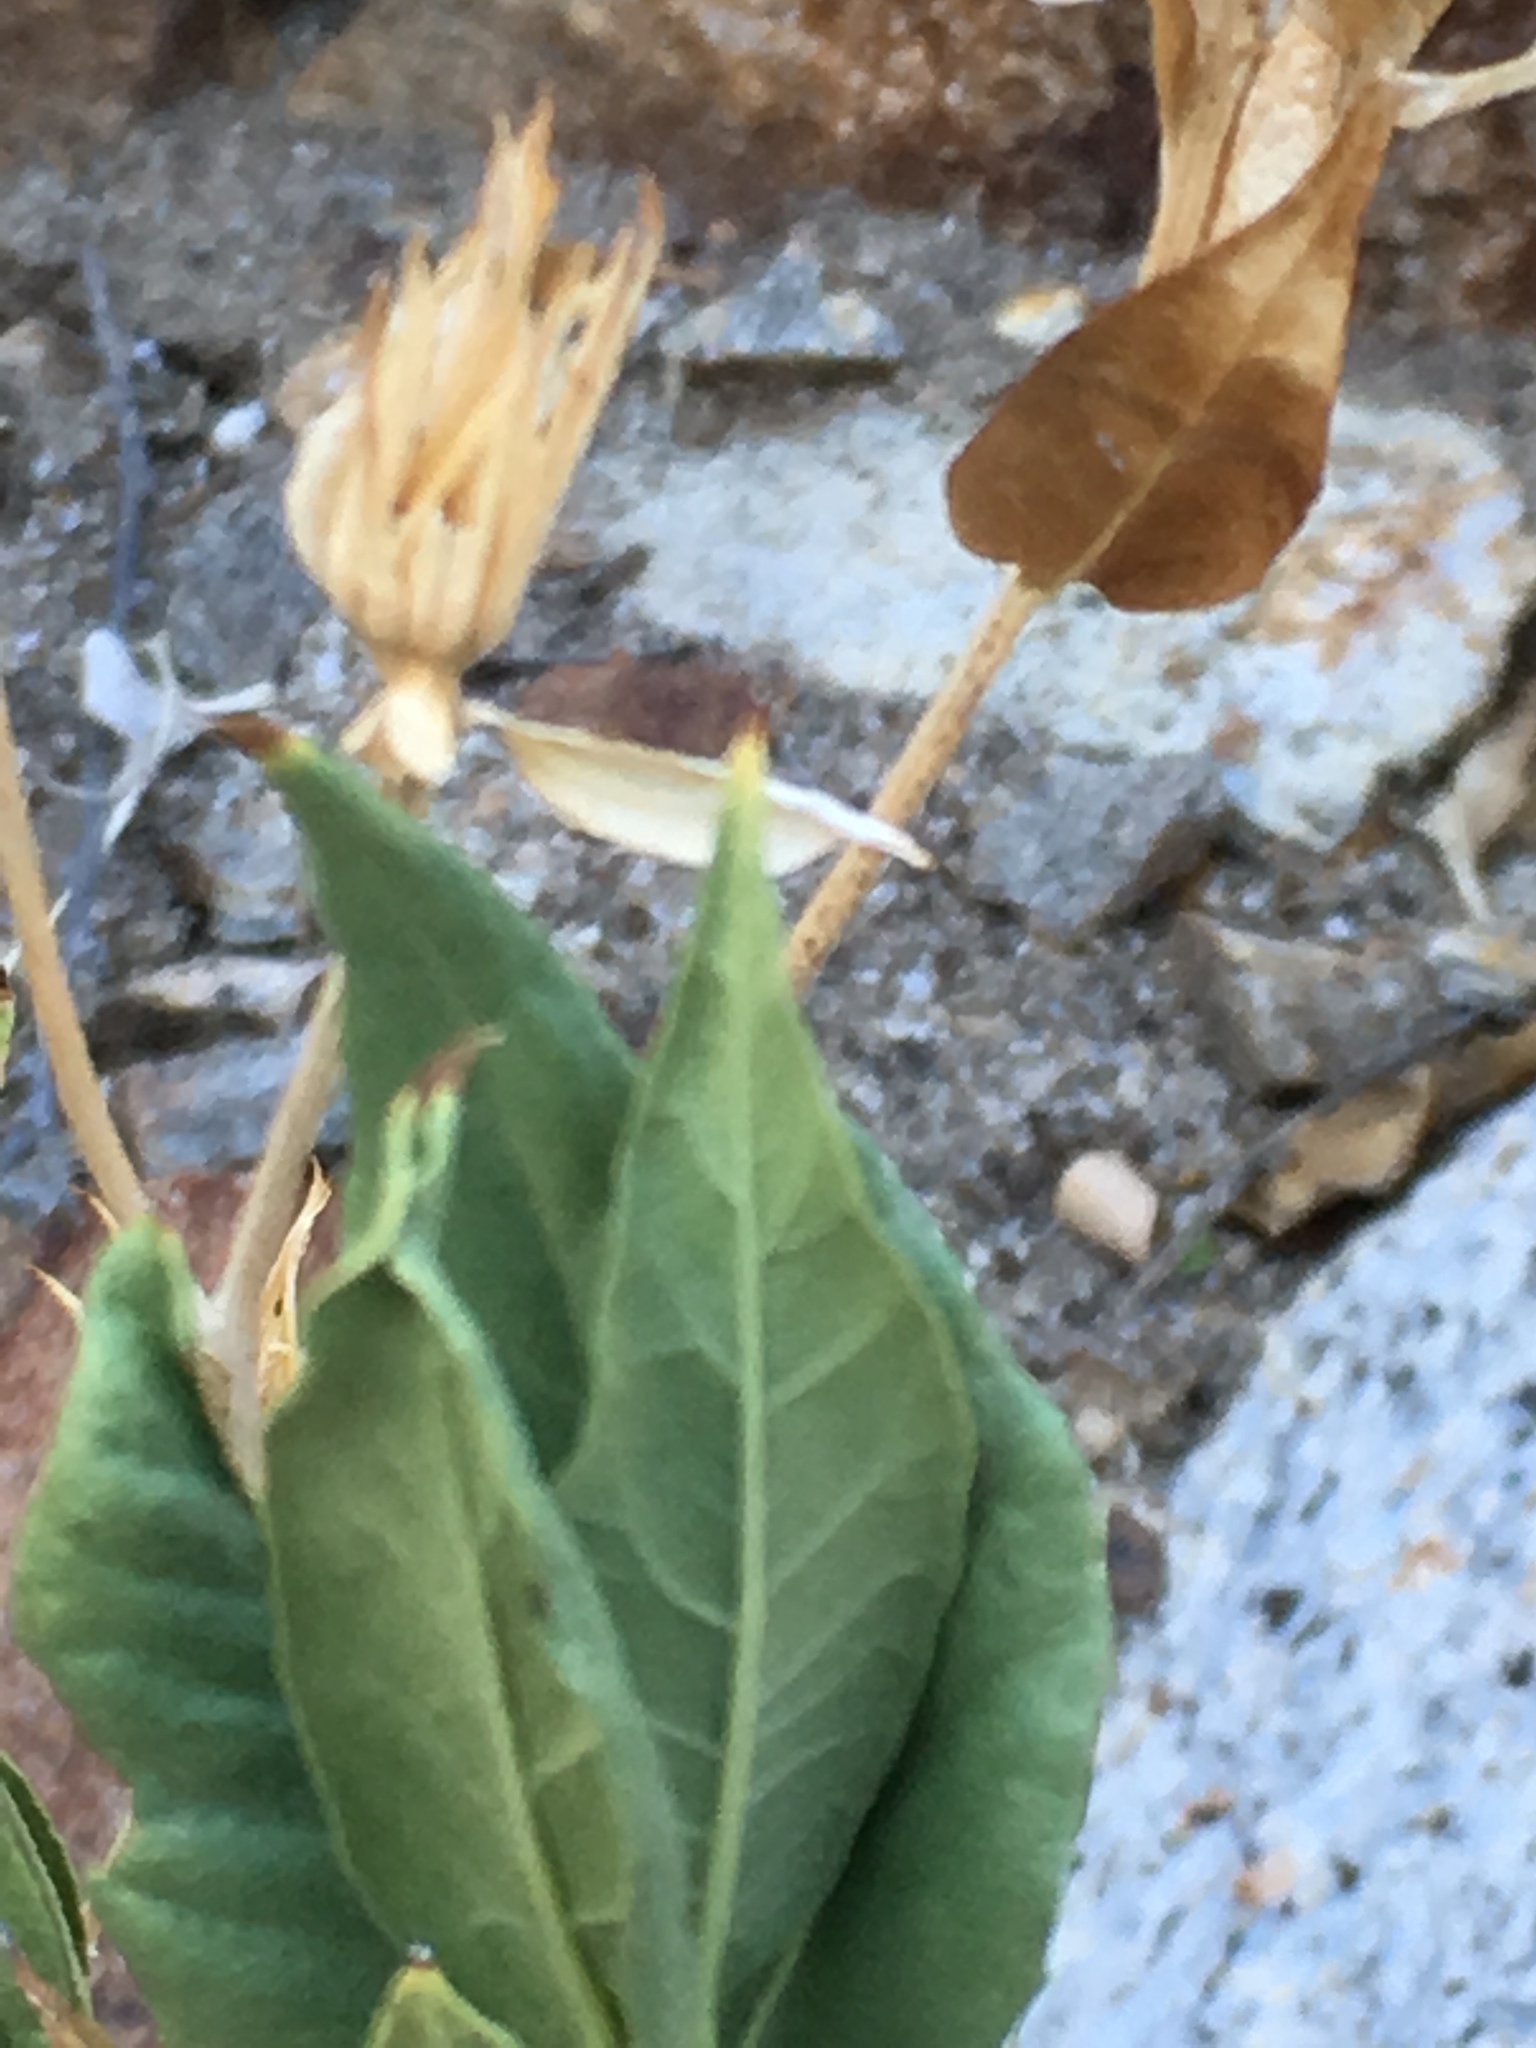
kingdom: Plantae
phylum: Tracheophyta
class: Magnoliopsida
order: Asterales
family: Asteraceae
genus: Trixis
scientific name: Trixis californica
